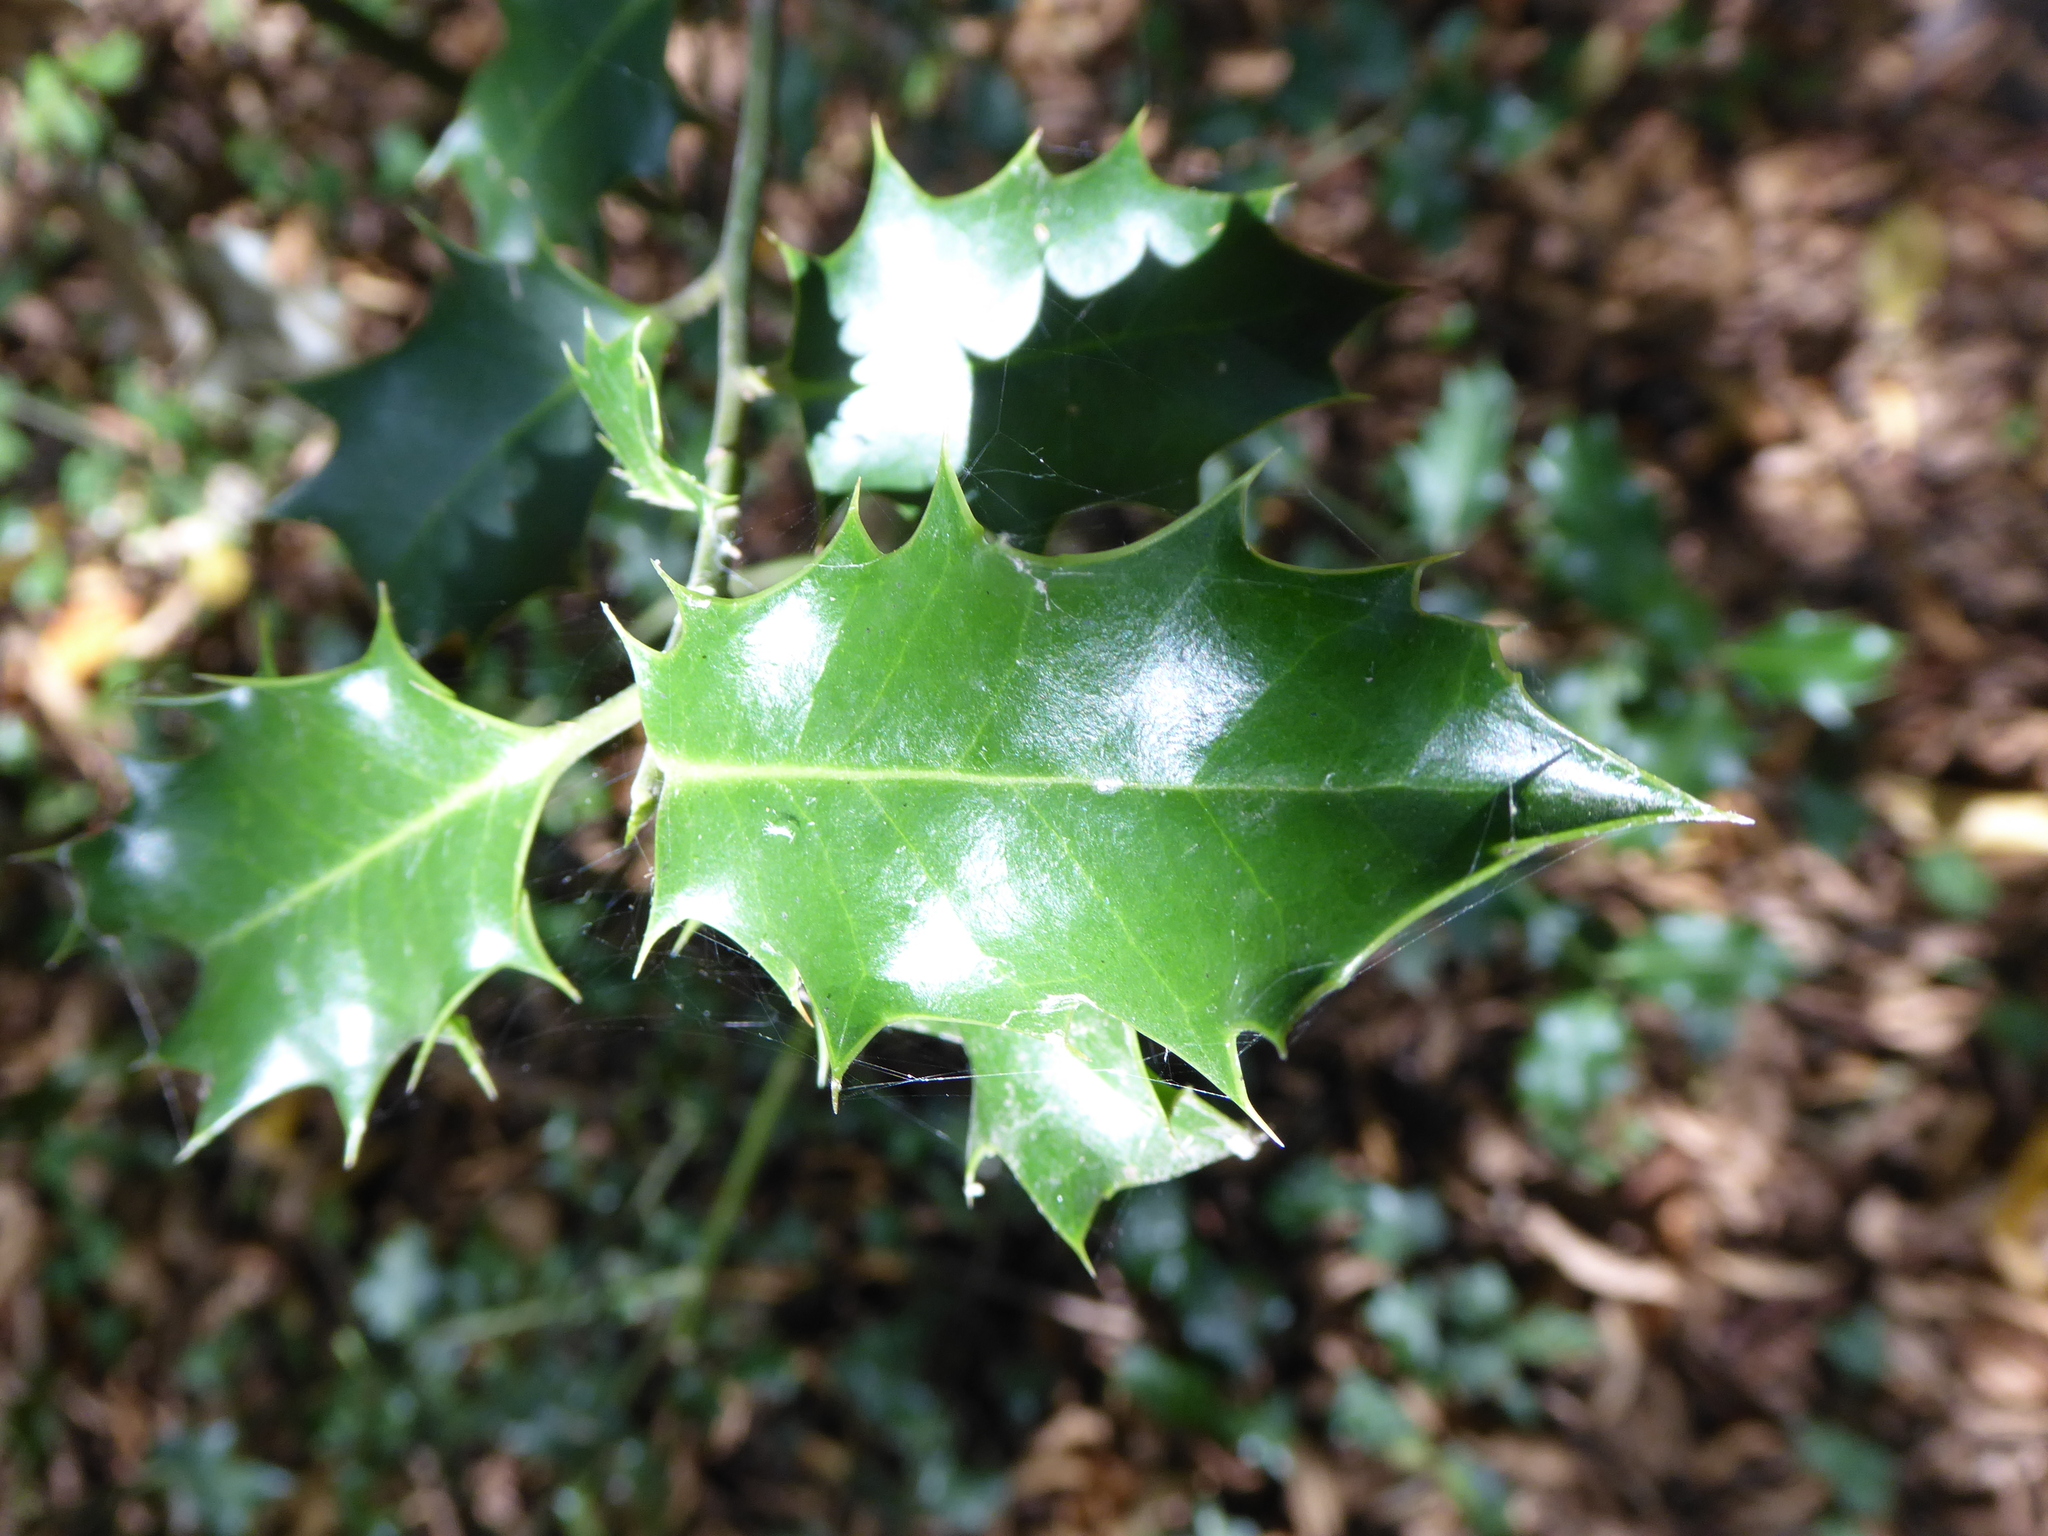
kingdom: Plantae
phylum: Tracheophyta
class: Magnoliopsida
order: Aquifoliales
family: Aquifoliaceae
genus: Ilex
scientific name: Ilex aquifolium
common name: English holly
